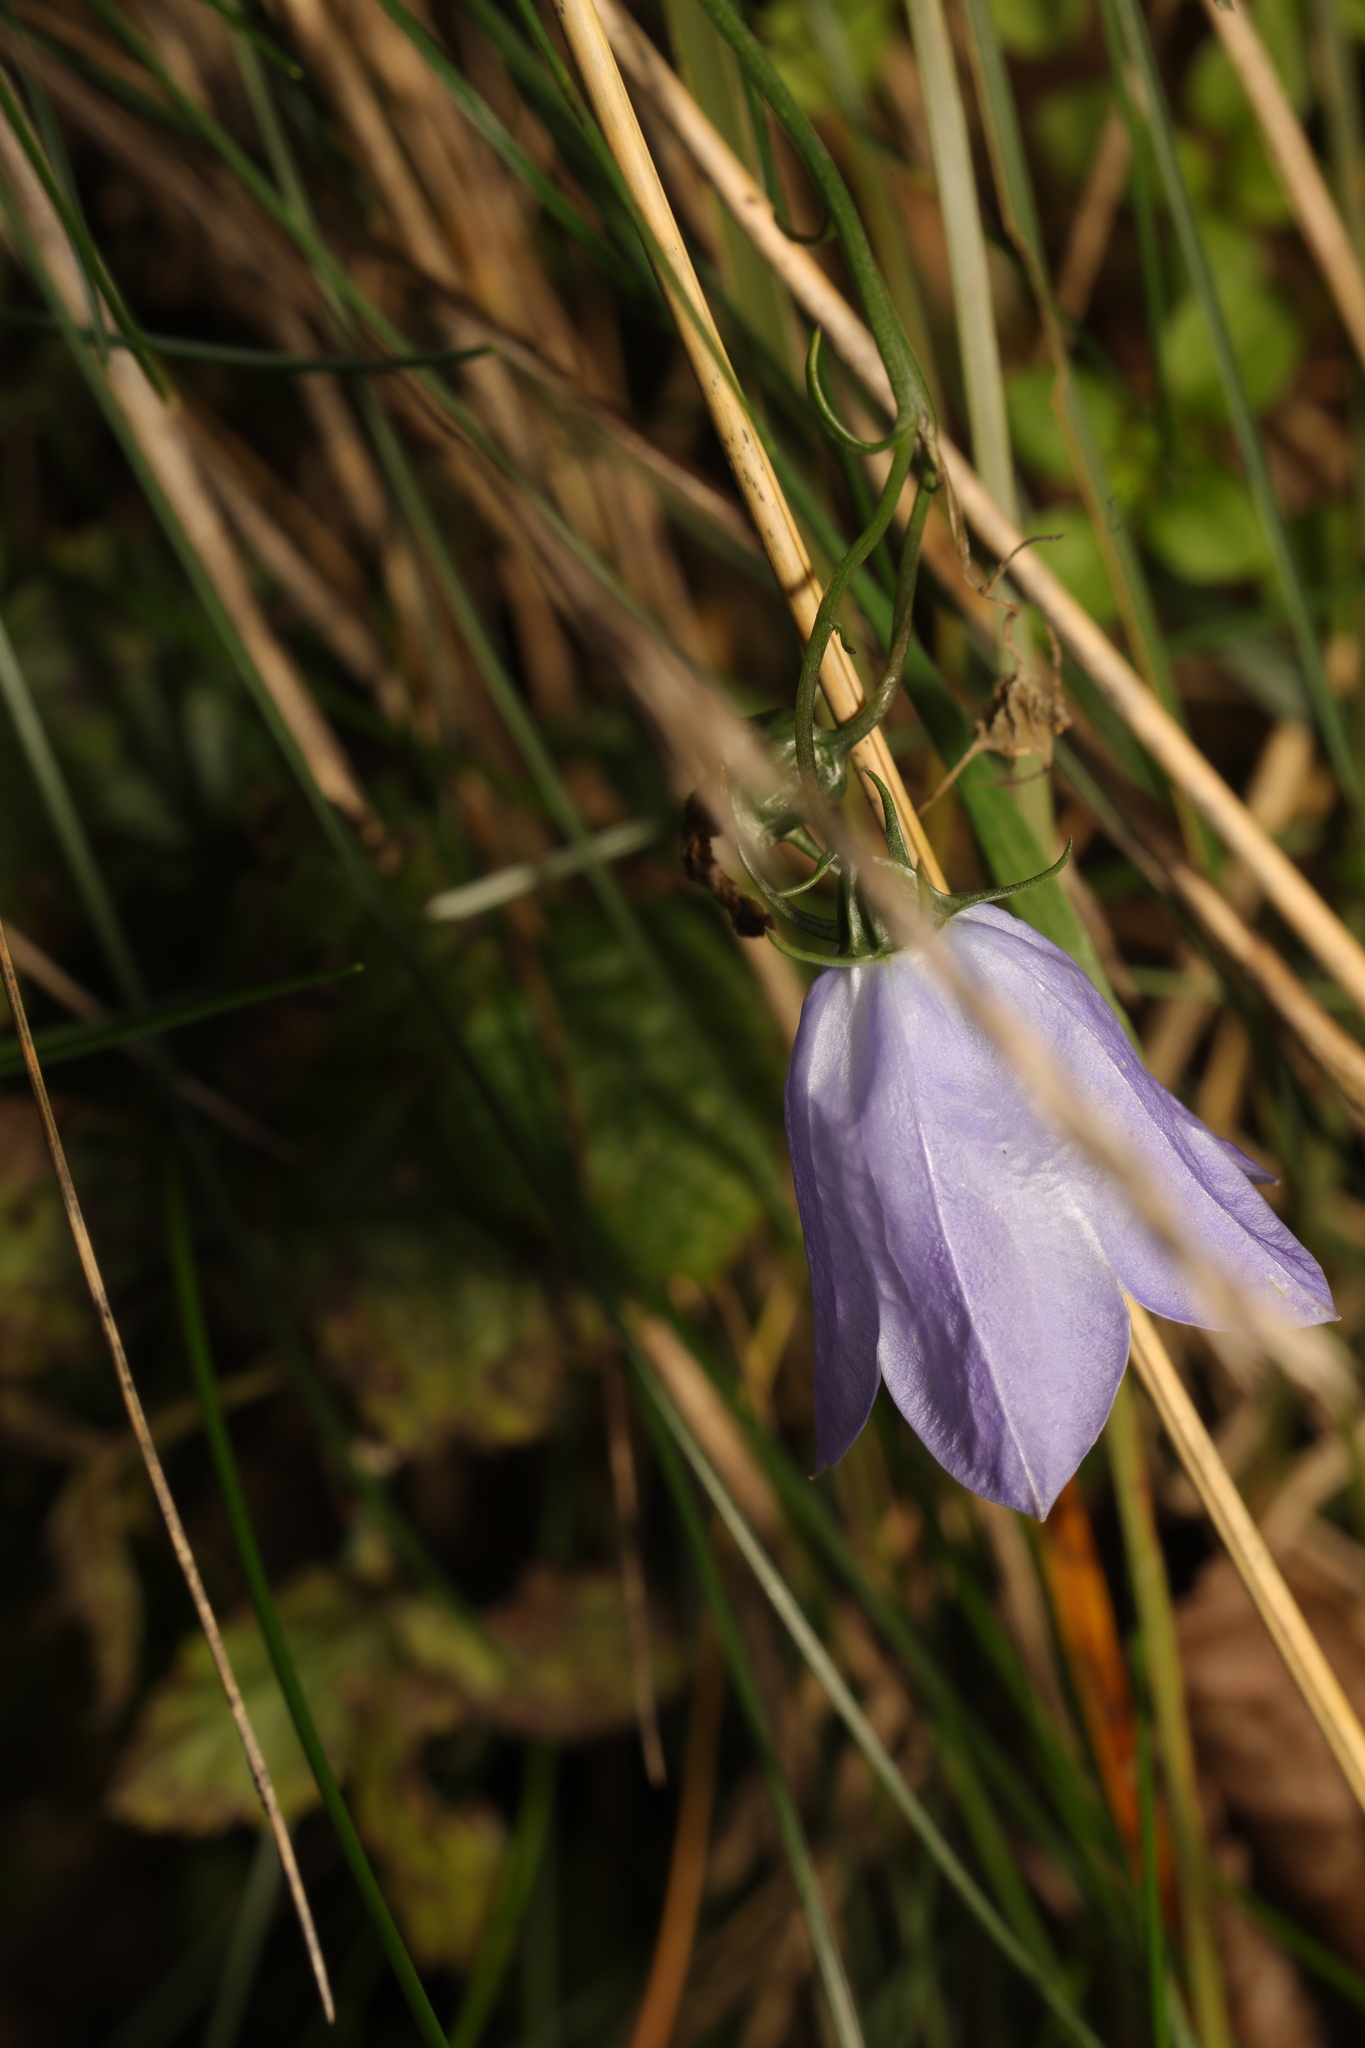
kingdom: Plantae
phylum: Tracheophyta
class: Magnoliopsida
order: Asterales
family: Campanulaceae
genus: Campanula
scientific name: Campanula rotundifolia
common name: Harebell
